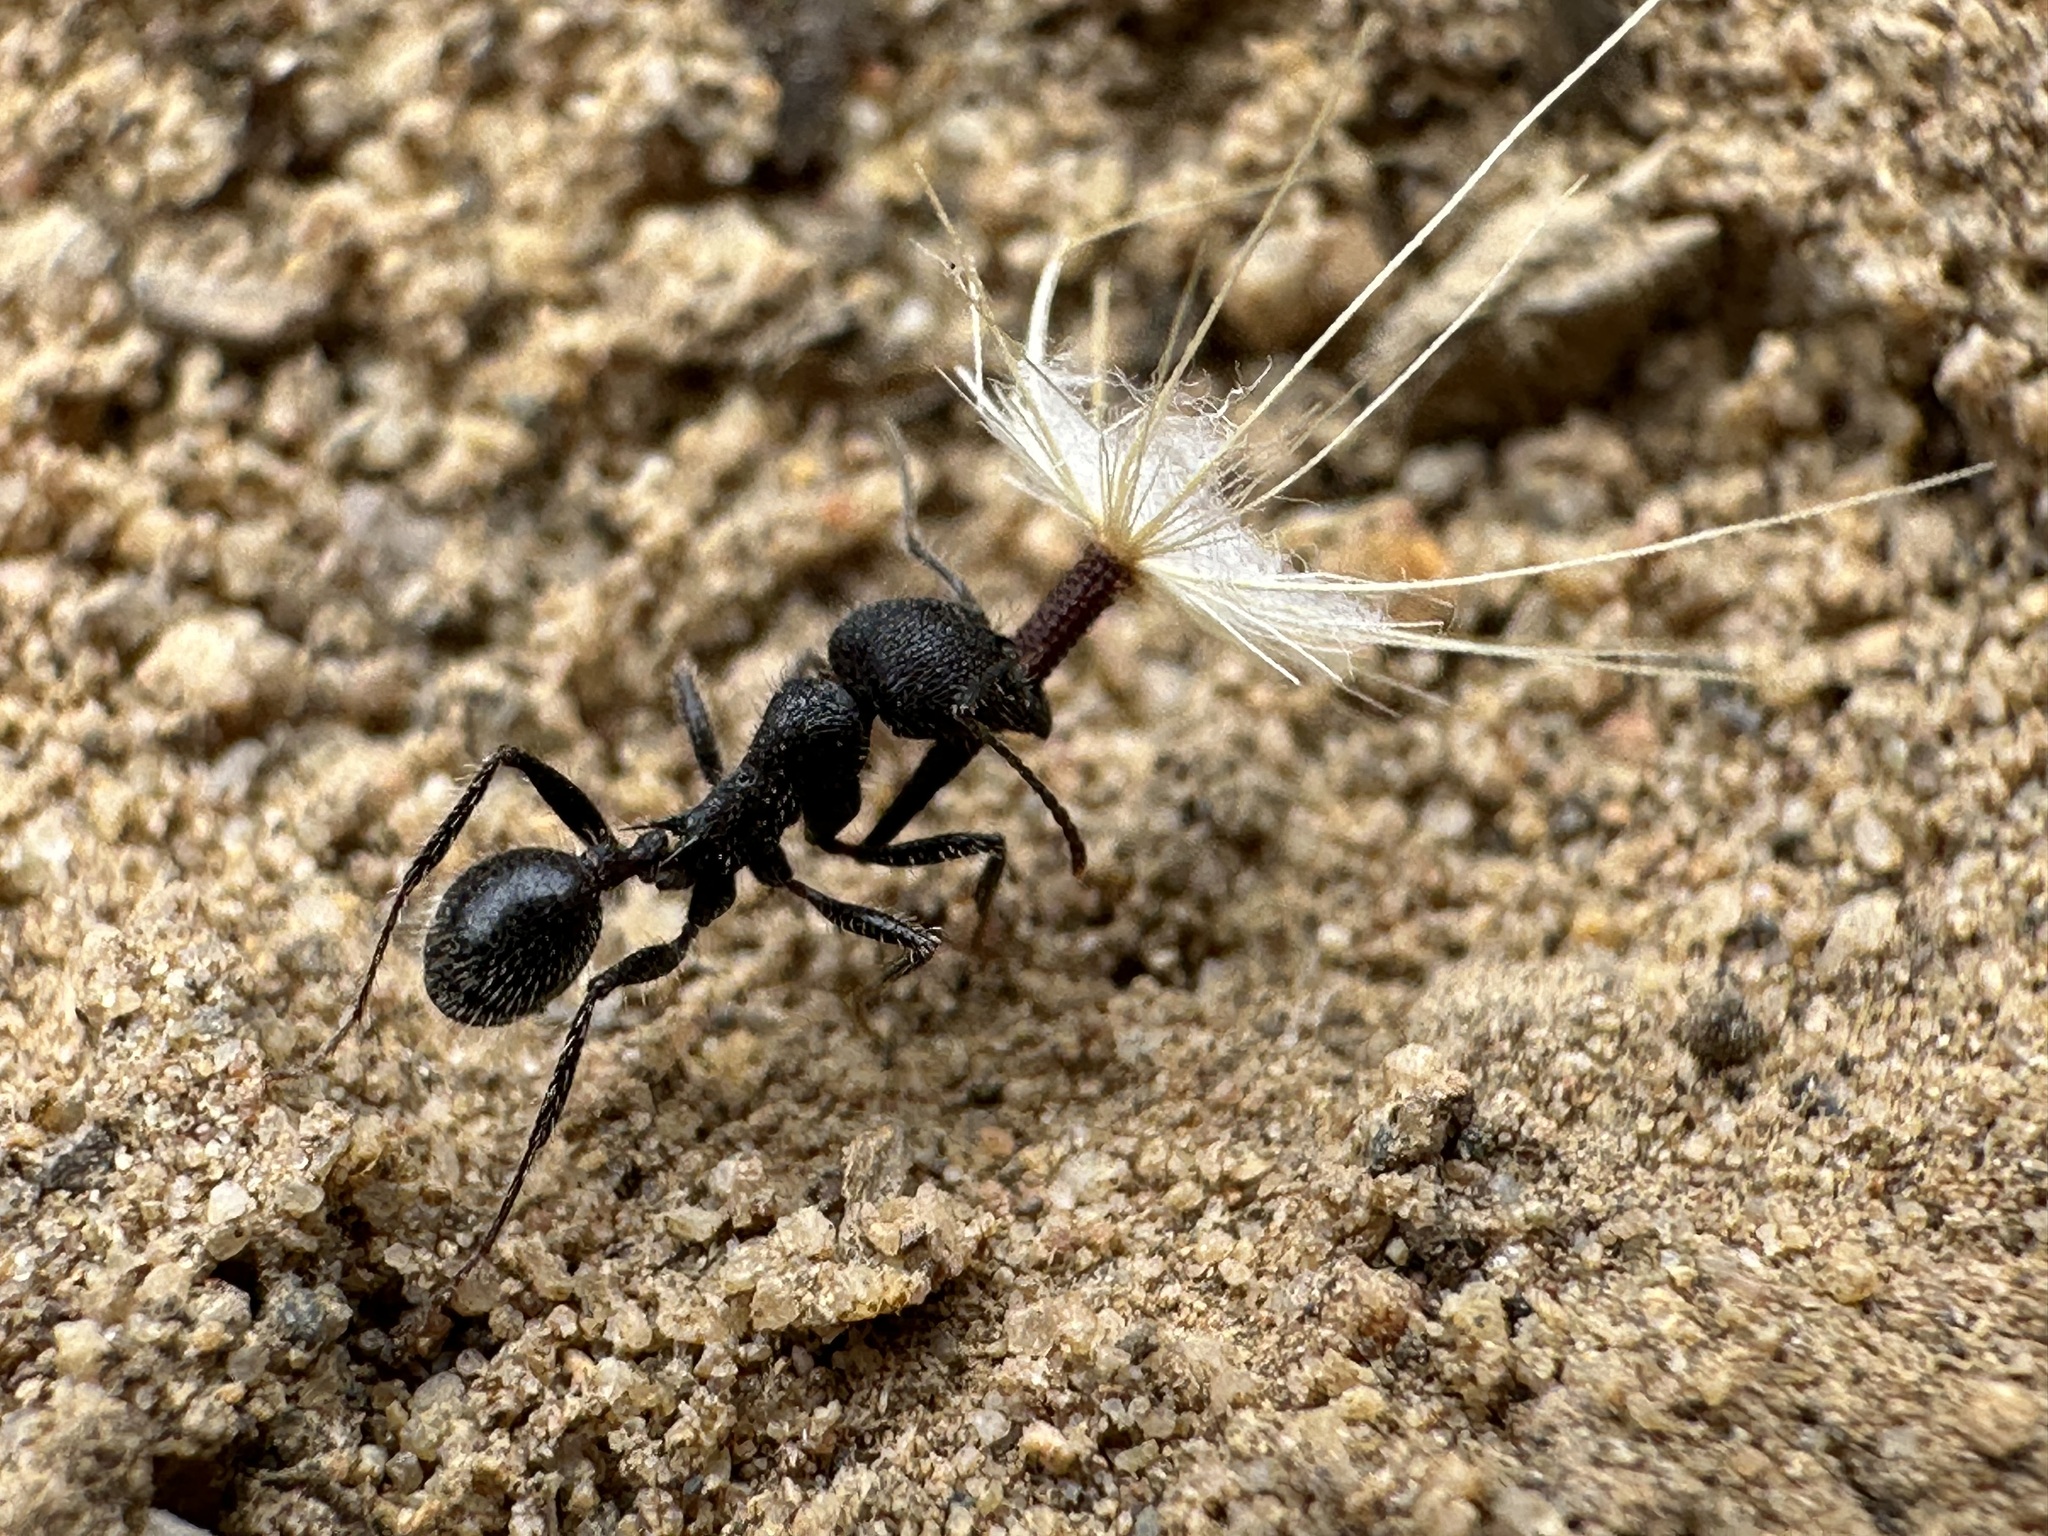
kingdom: Animalia
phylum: Arthropoda
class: Insecta
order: Hymenoptera
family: Formicidae
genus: Veromessor
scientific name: Veromessor andrei
